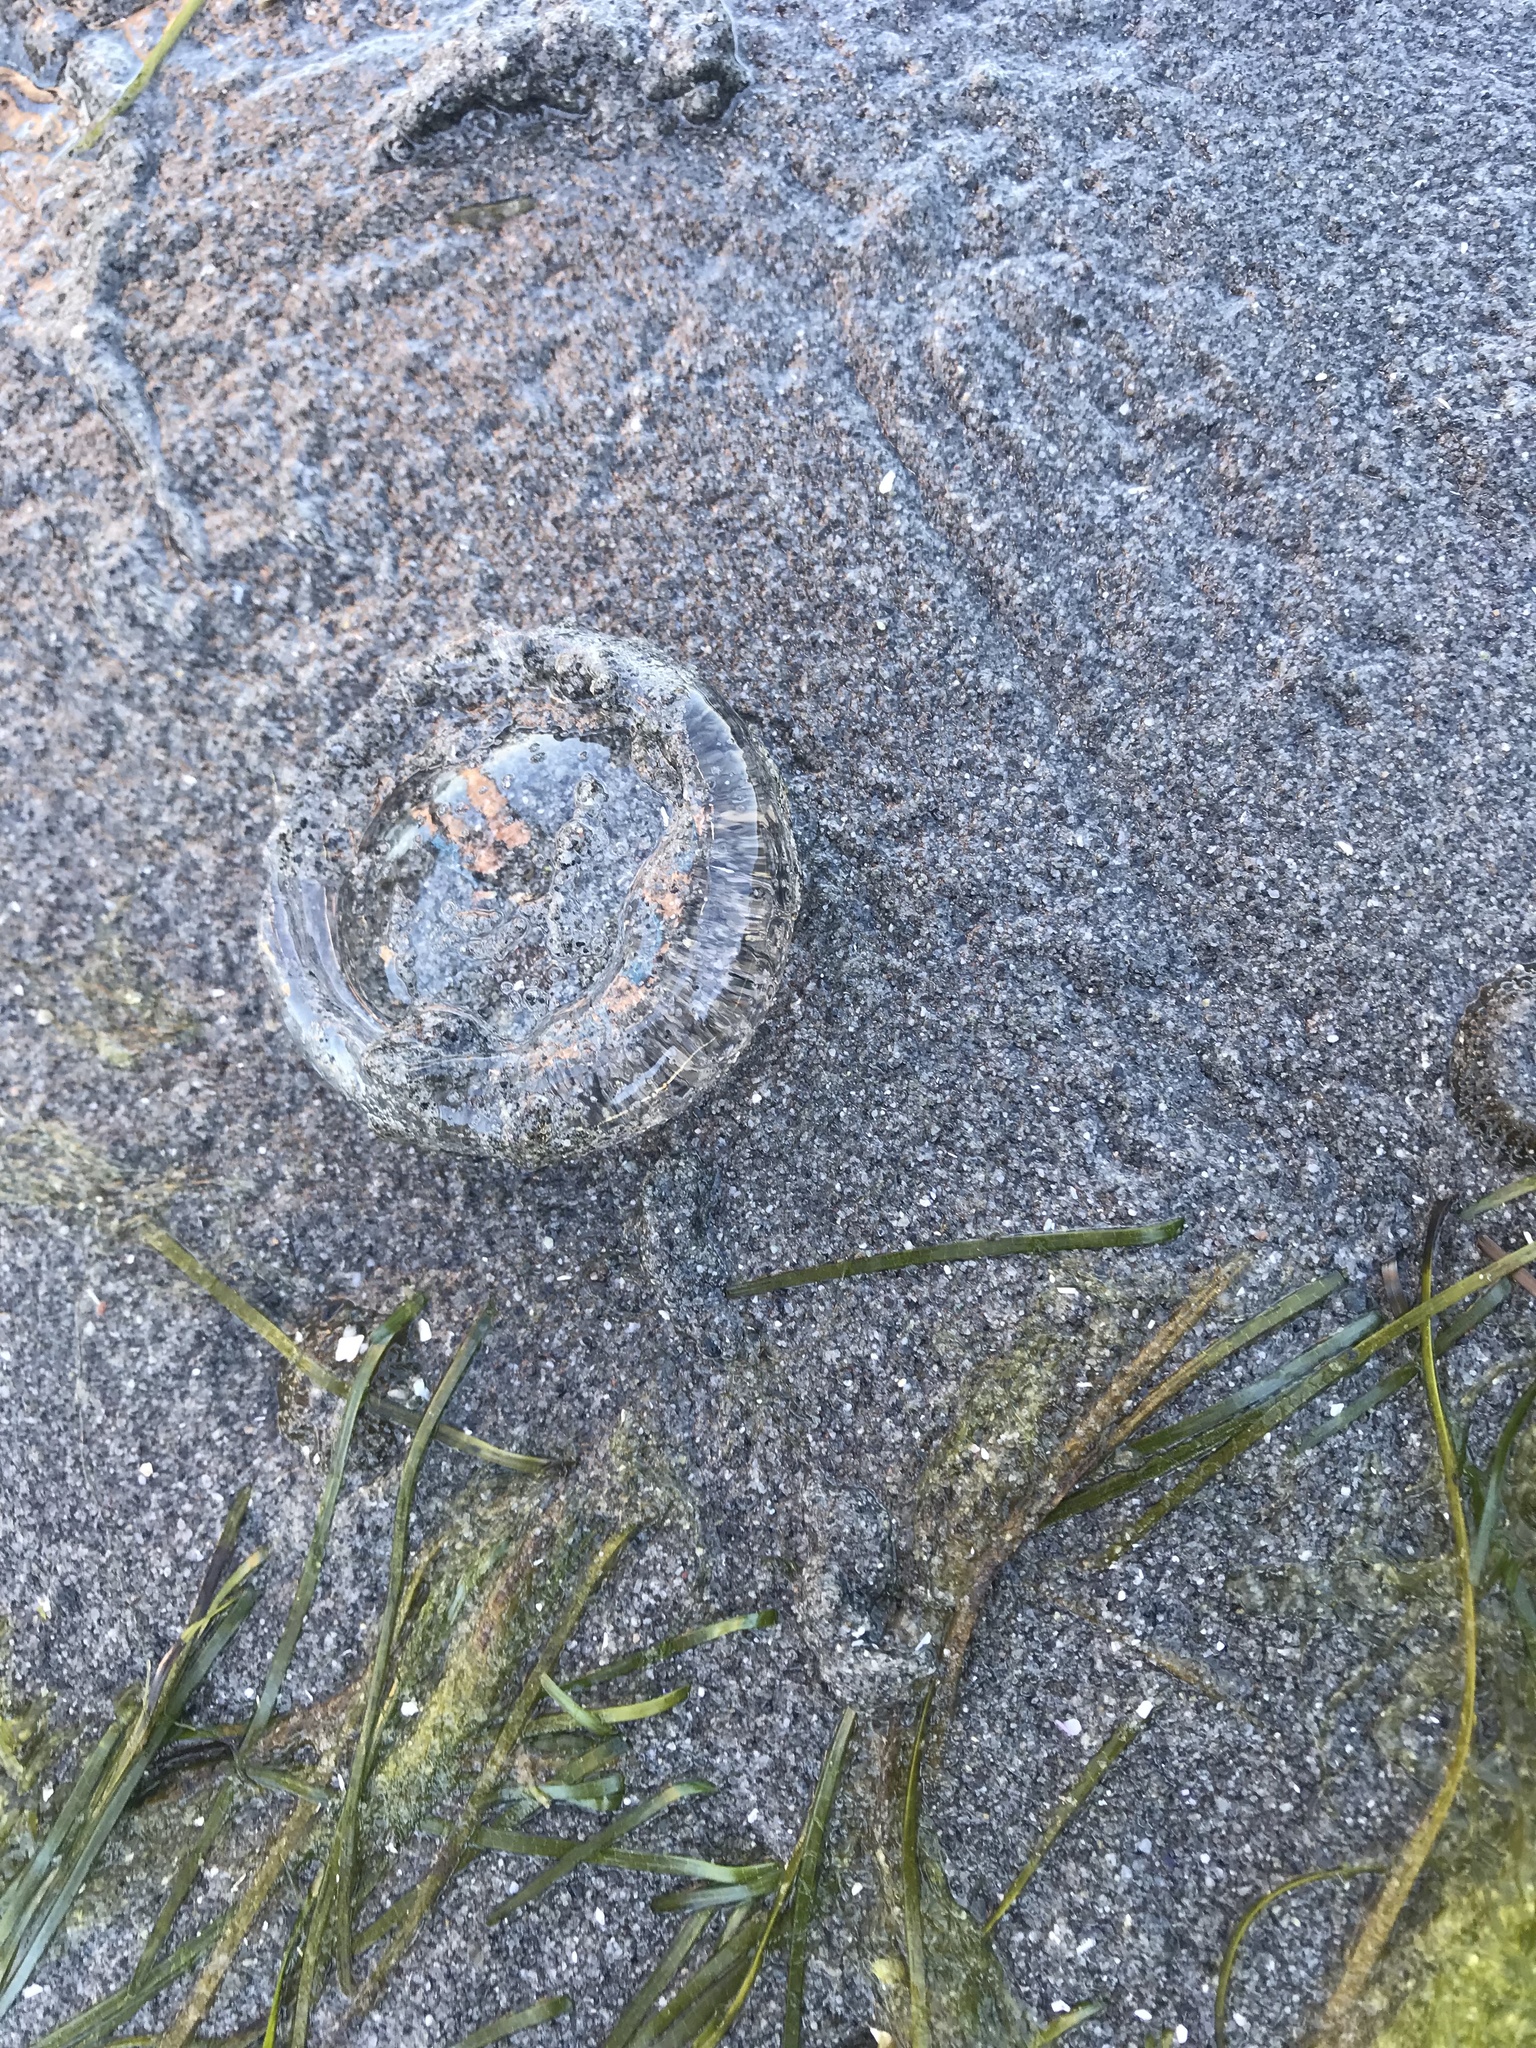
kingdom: Animalia
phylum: Cnidaria
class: Hydrozoa
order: Leptothecata
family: Aequoreidae
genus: Aequorea
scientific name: Aequorea victoria
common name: Water jellyfish
